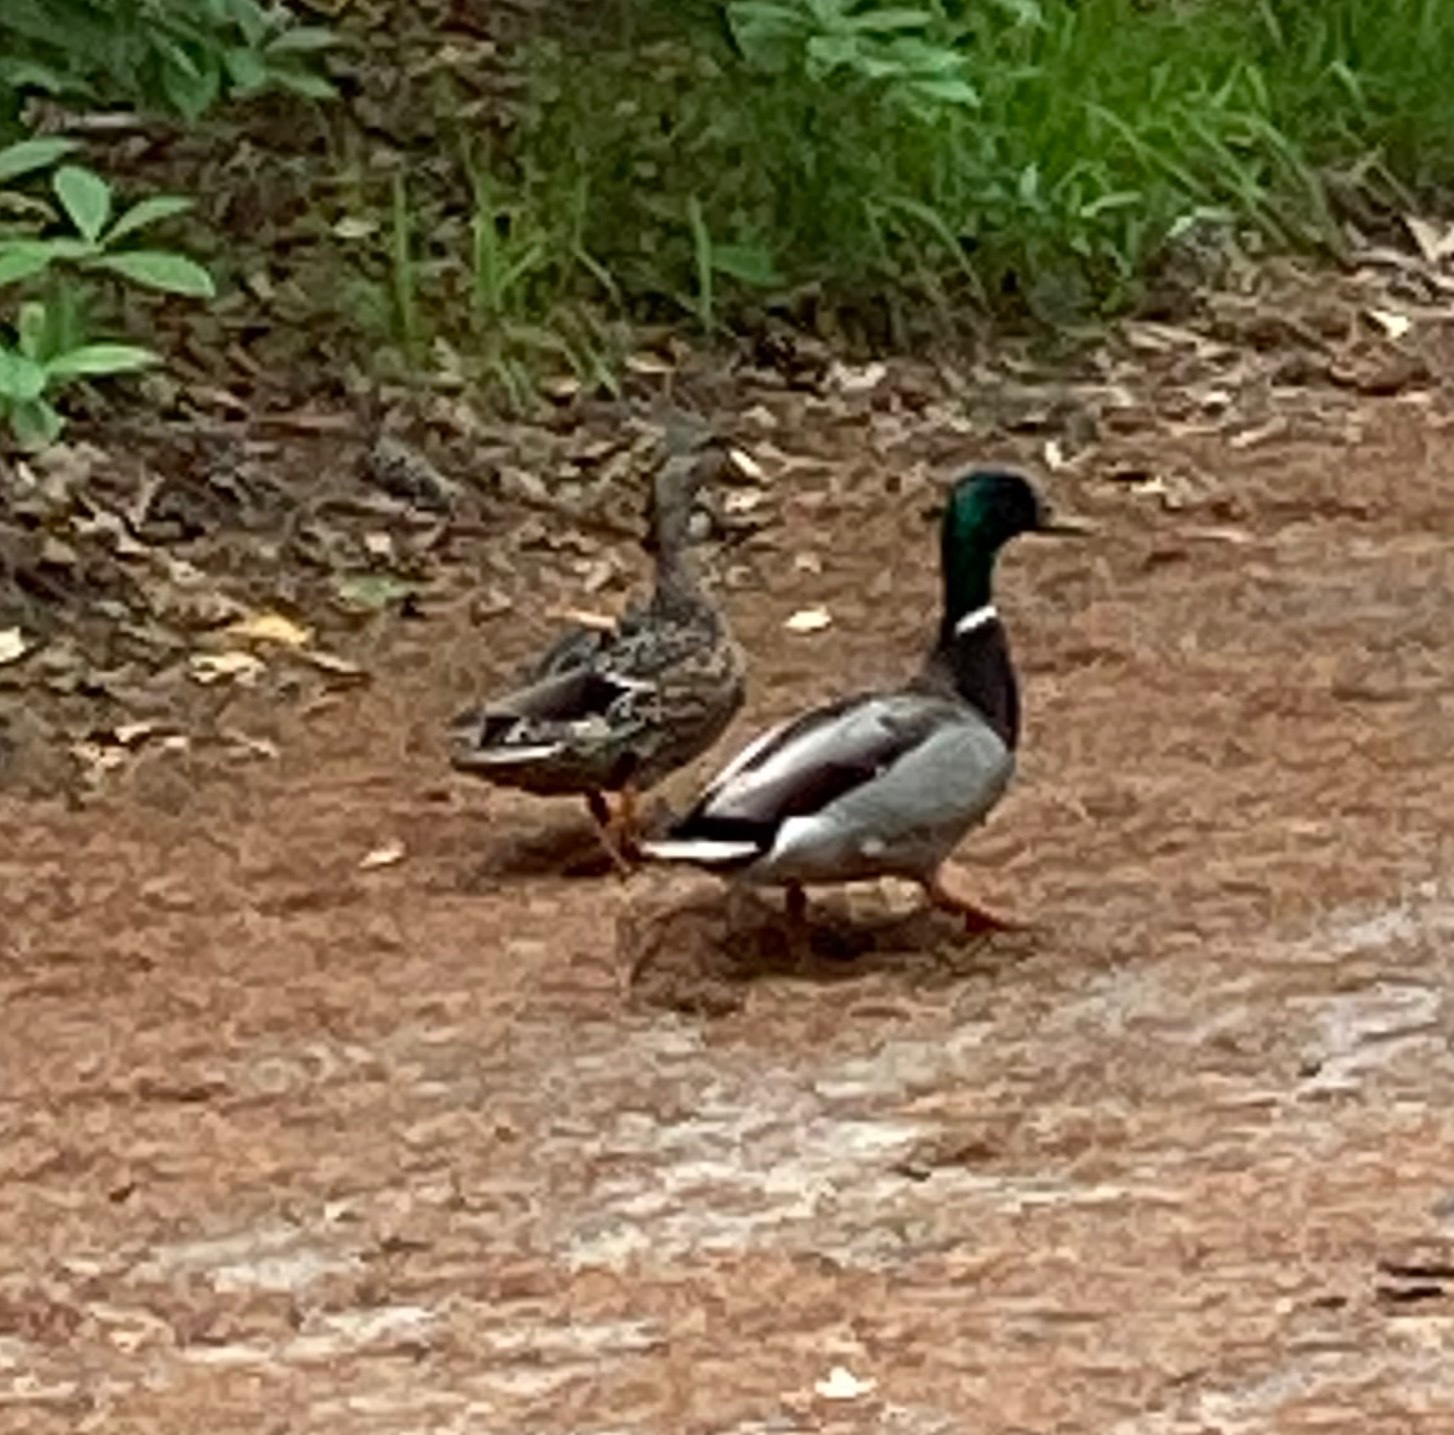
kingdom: Animalia
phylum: Chordata
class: Aves
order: Anseriformes
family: Anatidae
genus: Anas
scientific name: Anas platyrhynchos
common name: Mallard
